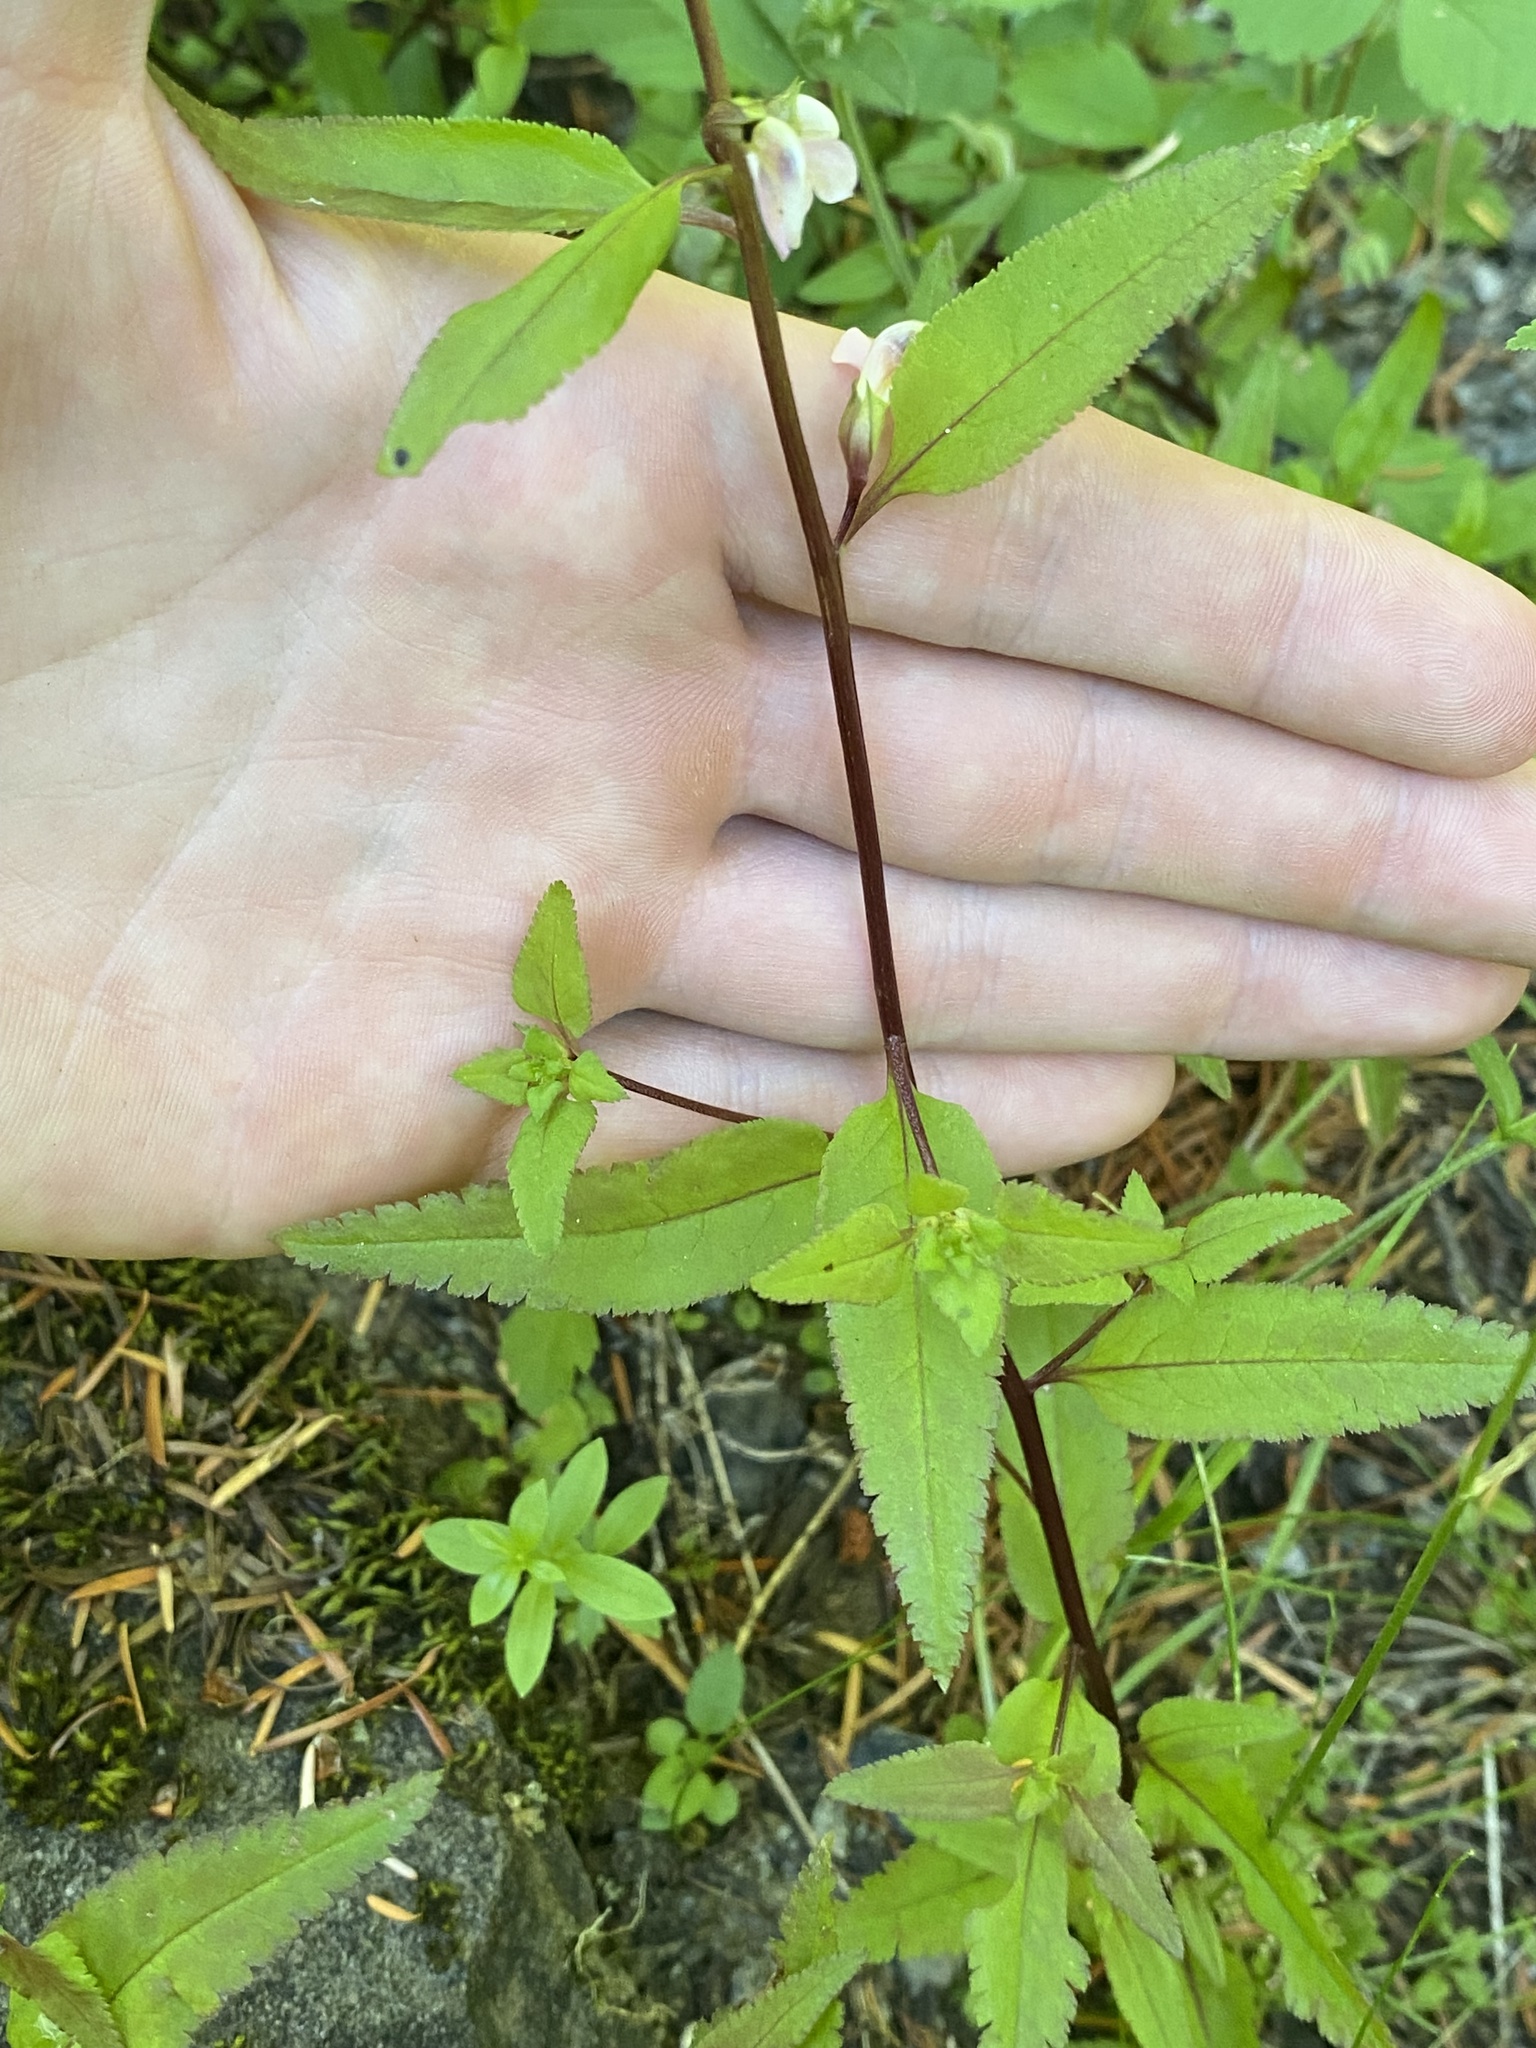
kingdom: Plantae
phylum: Tracheophyta
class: Magnoliopsida
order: Lamiales
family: Orobanchaceae
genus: Pedicularis
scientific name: Pedicularis racemosa
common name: Leafy lousewort
